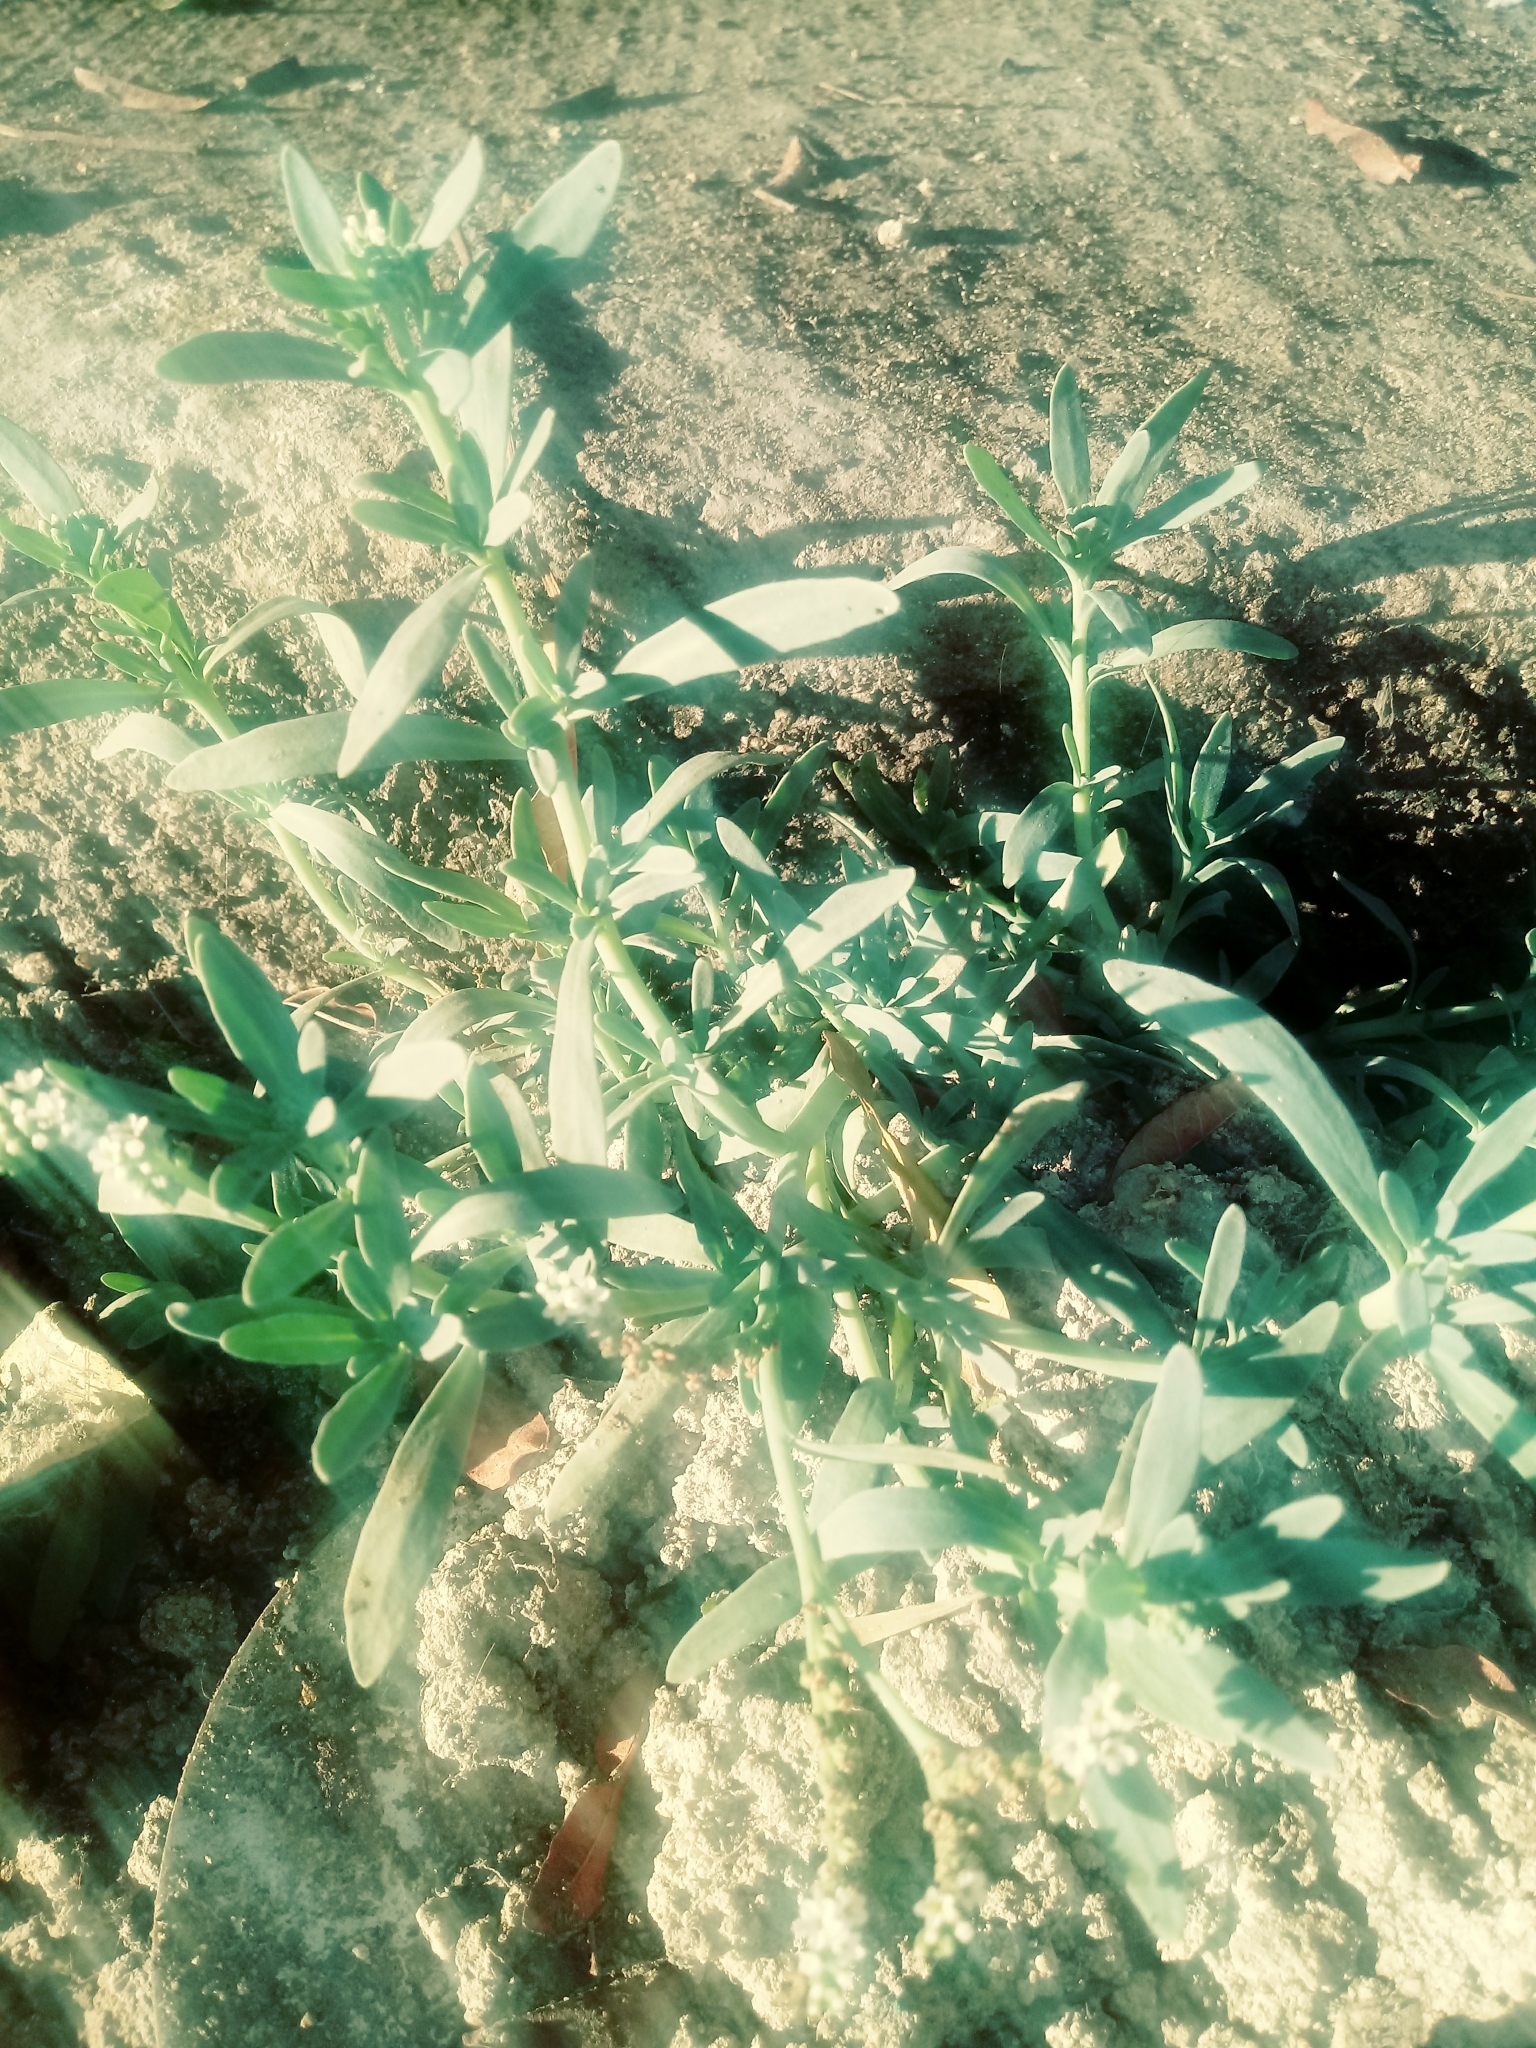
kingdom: Plantae
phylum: Tracheophyta
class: Magnoliopsida
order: Boraginales
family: Heliotropiaceae
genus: Heliotropium
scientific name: Heliotropium curassavicum
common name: Seaside heliotrope
